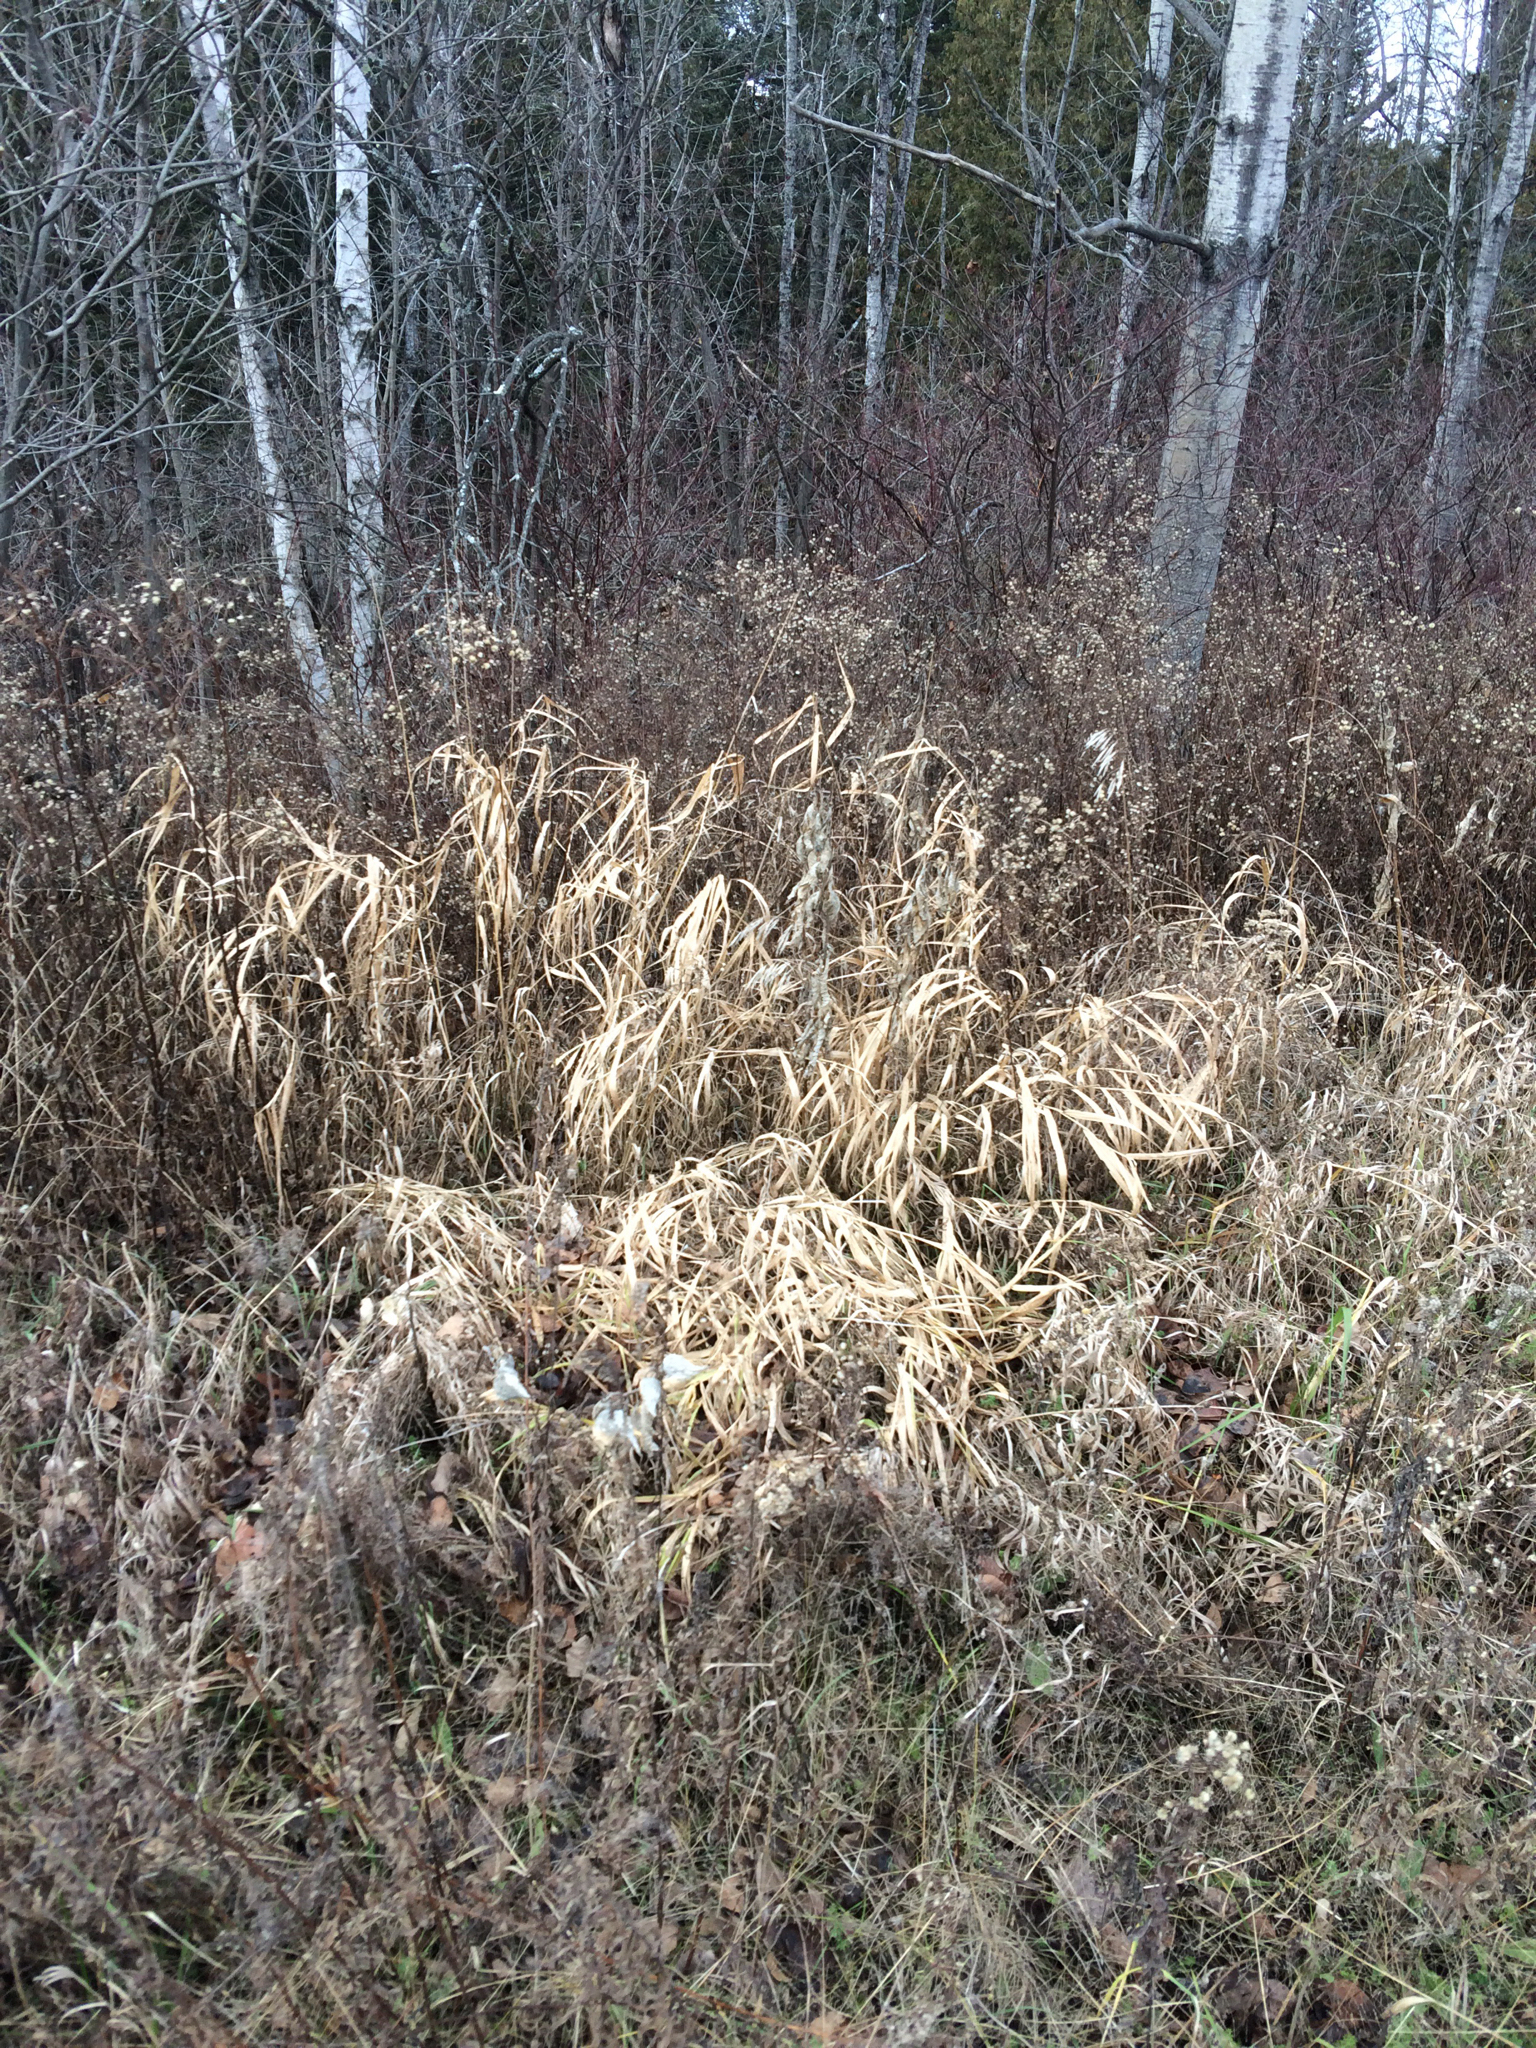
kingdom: Plantae
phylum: Tracheophyta
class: Liliopsida
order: Poales
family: Poaceae
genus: Phalaris
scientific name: Phalaris arundinacea
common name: Reed canary-grass
